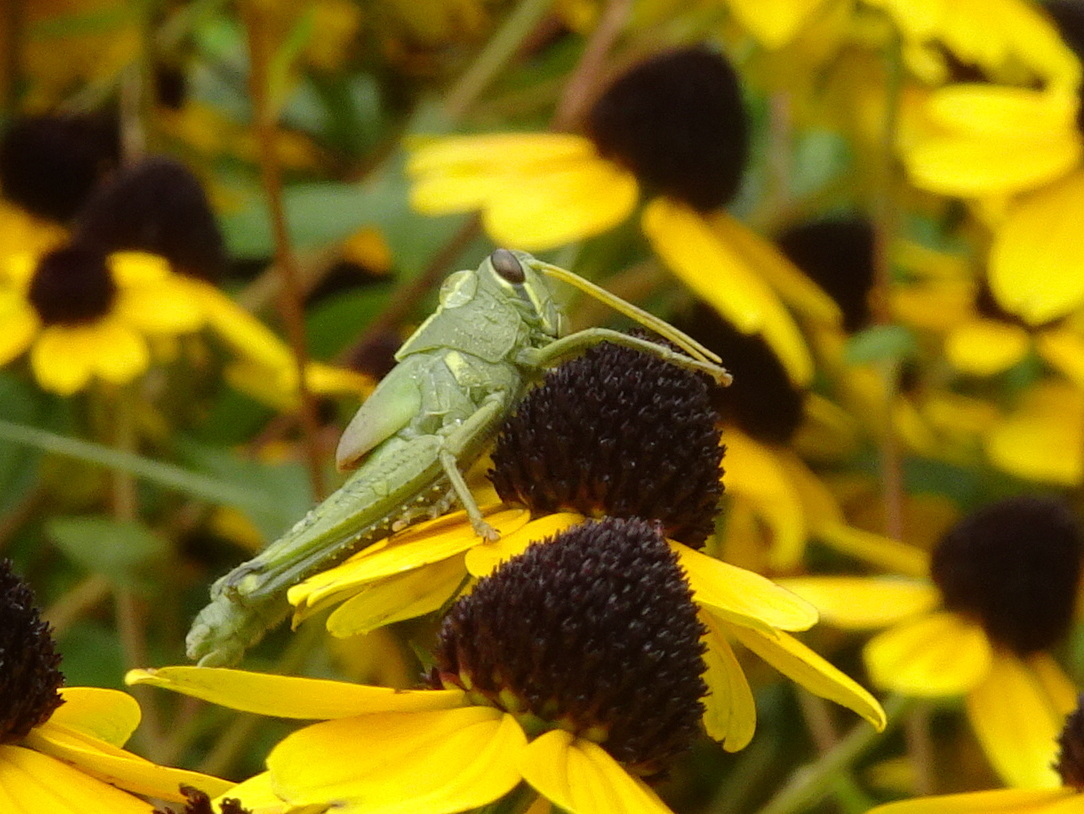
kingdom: Animalia
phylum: Arthropoda
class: Insecta
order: Orthoptera
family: Acrididae
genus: Schistocerca
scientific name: Schistocerca obscura
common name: Obscure bird grasshopper
